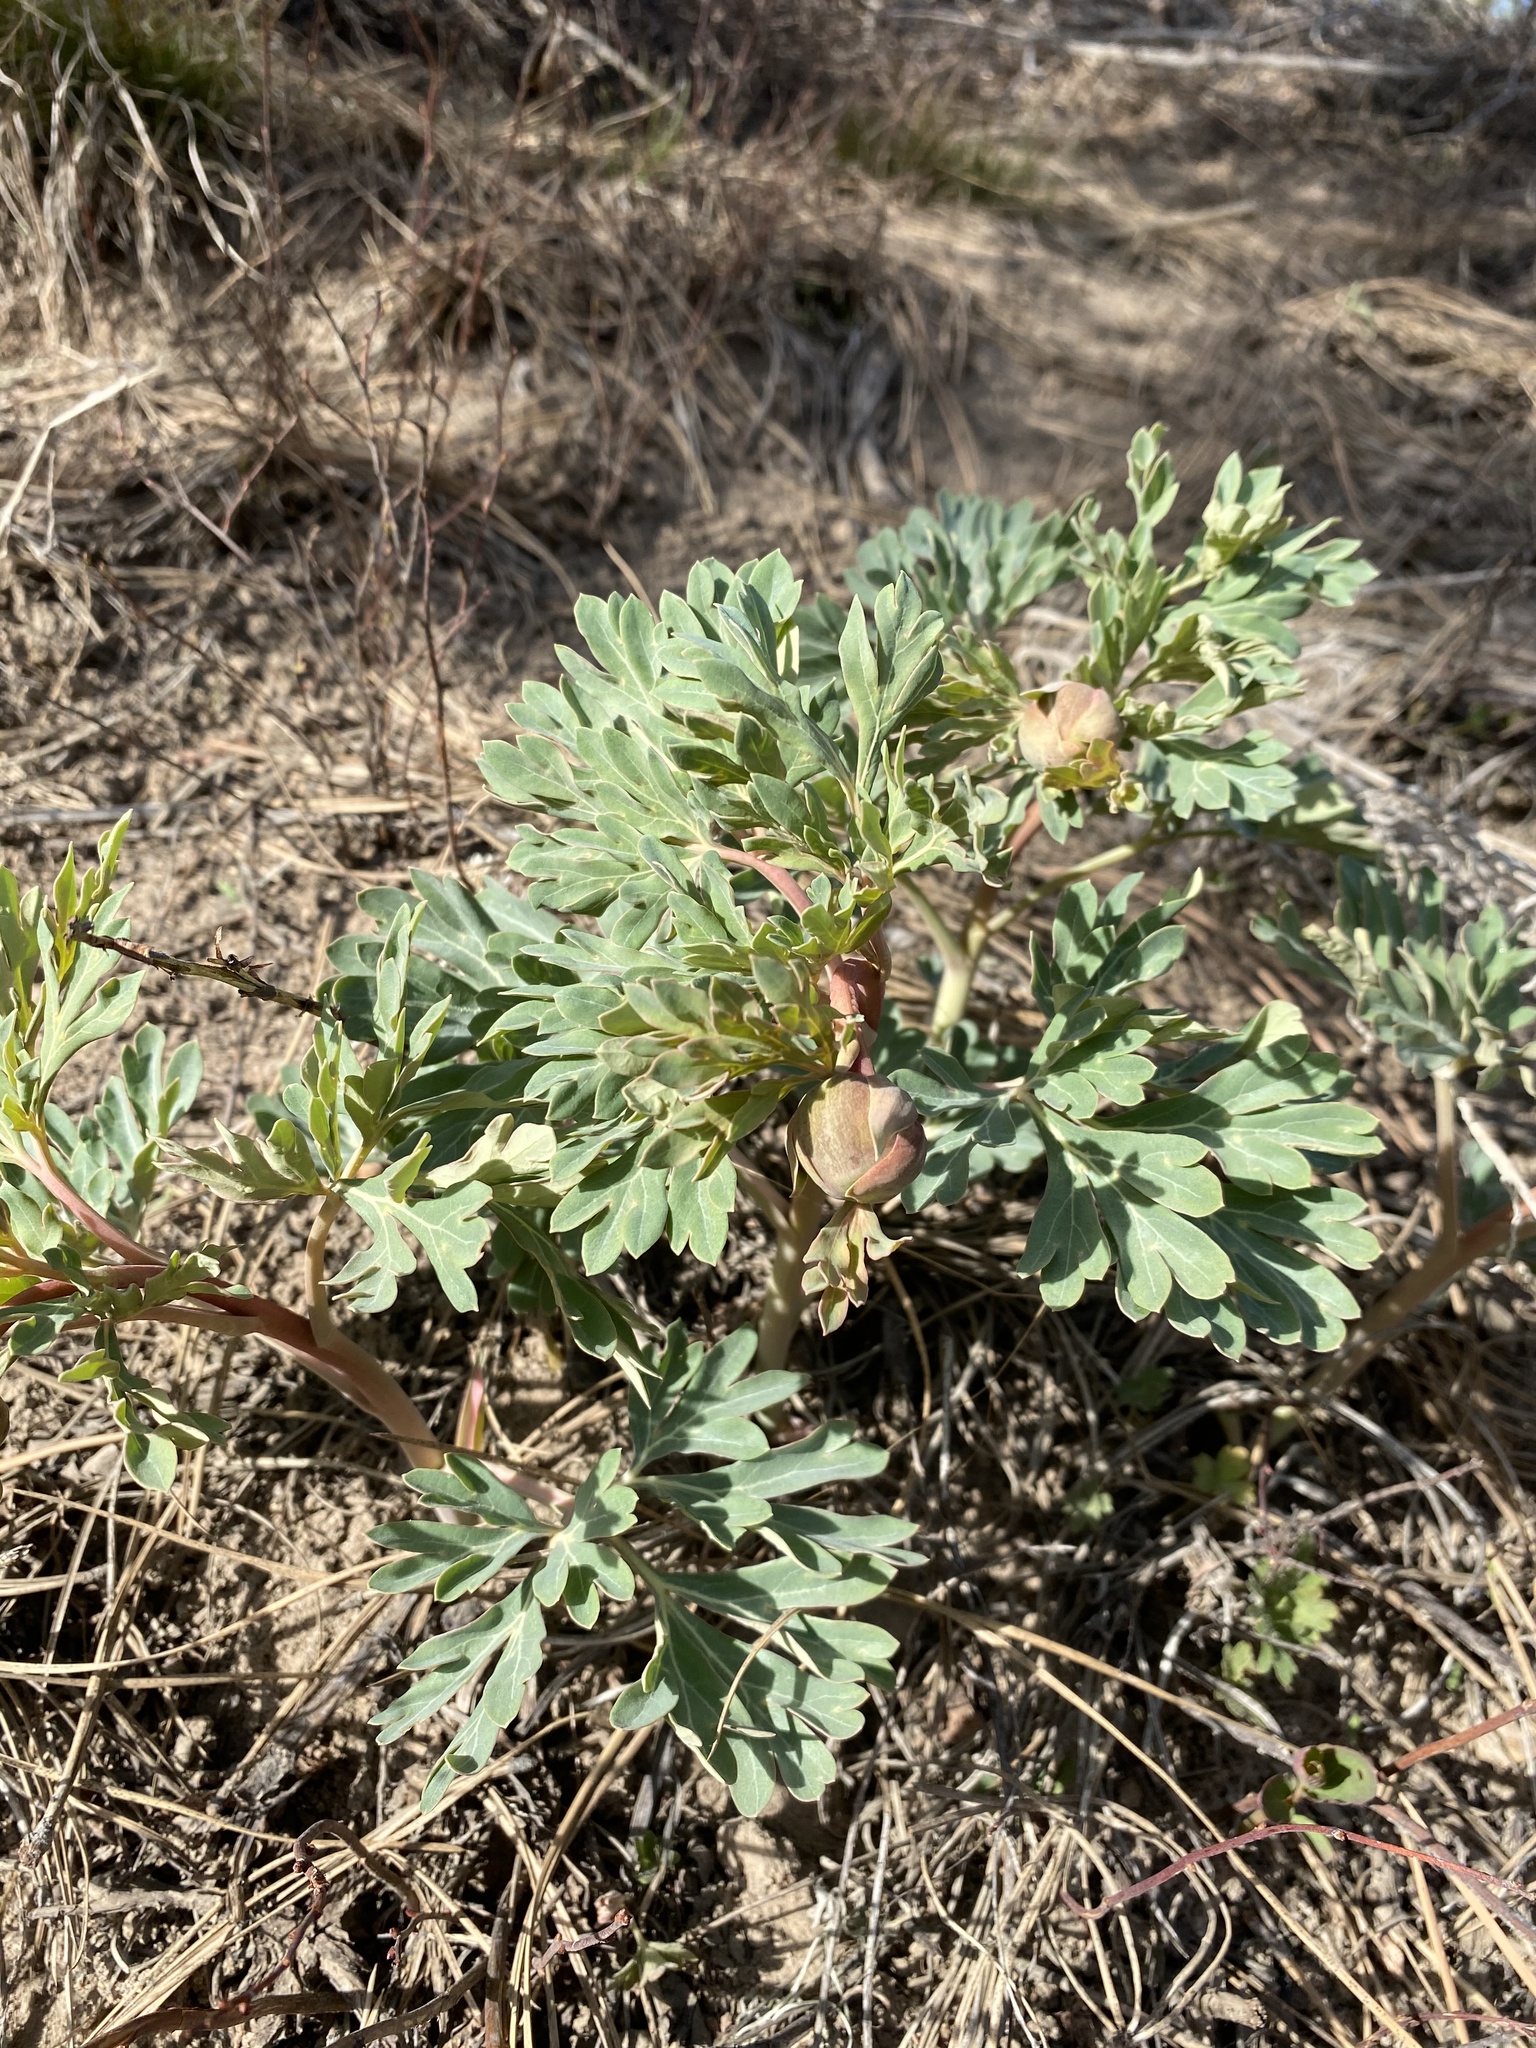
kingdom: Plantae
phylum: Tracheophyta
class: Magnoliopsida
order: Saxifragales
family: Paeoniaceae
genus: Paeonia
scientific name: Paeonia brownii
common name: Brown's peony
